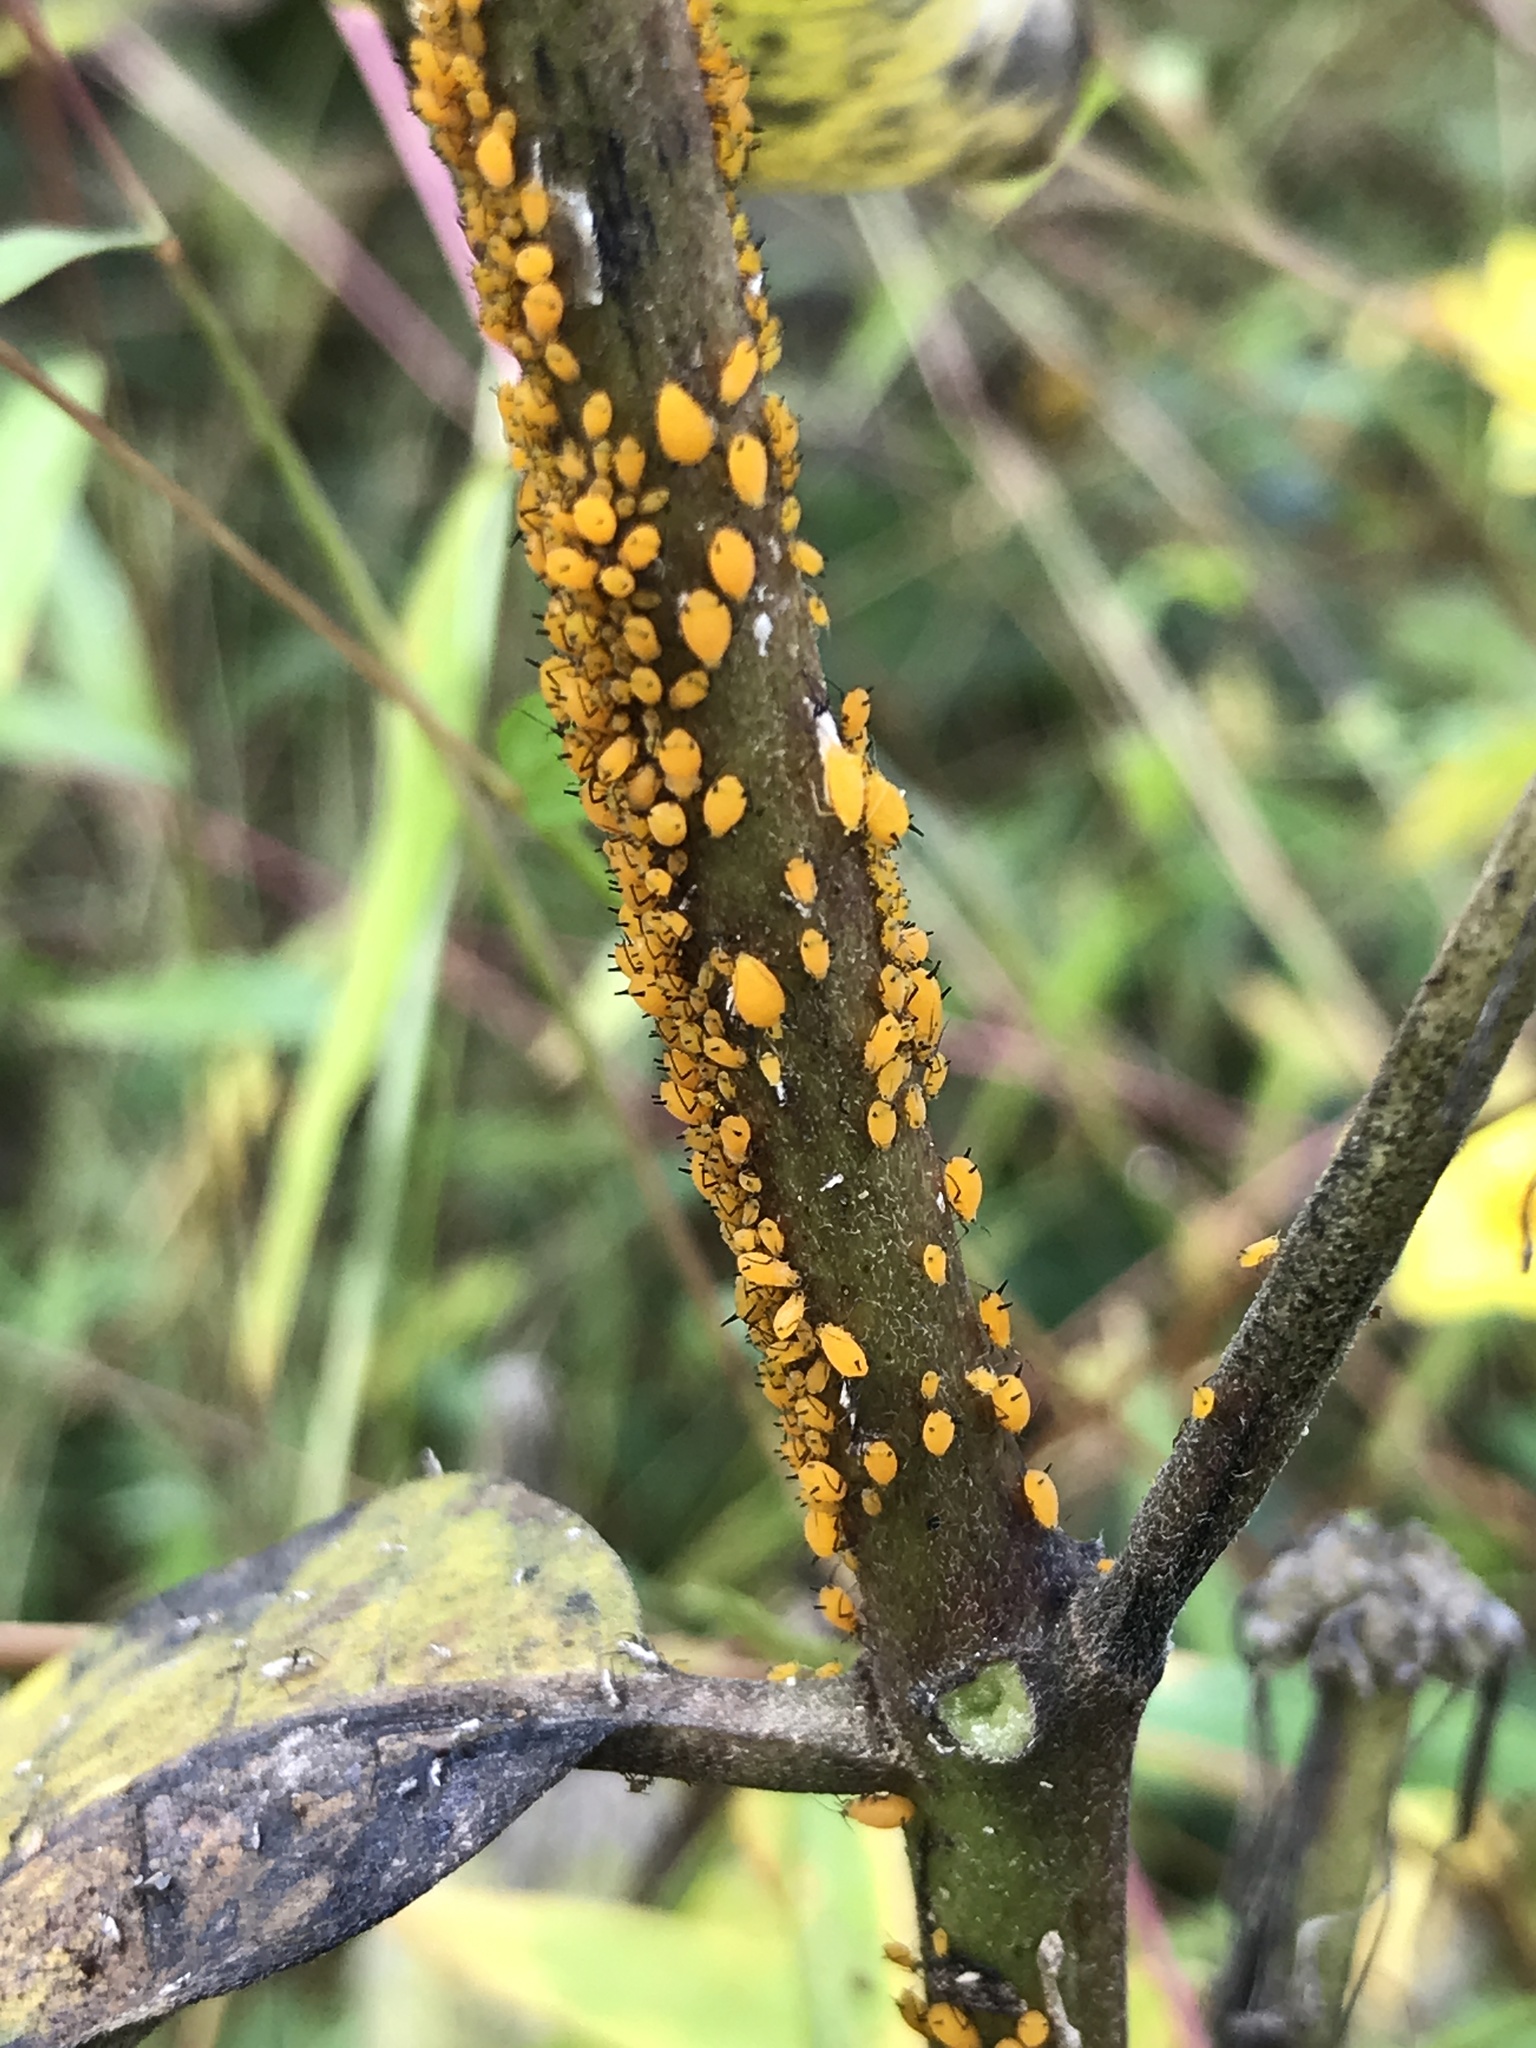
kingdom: Animalia
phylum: Arthropoda
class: Insecta
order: Hemiptera
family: Aphididae
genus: Aphis
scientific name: Aphis nerii
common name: Oleander aphid
